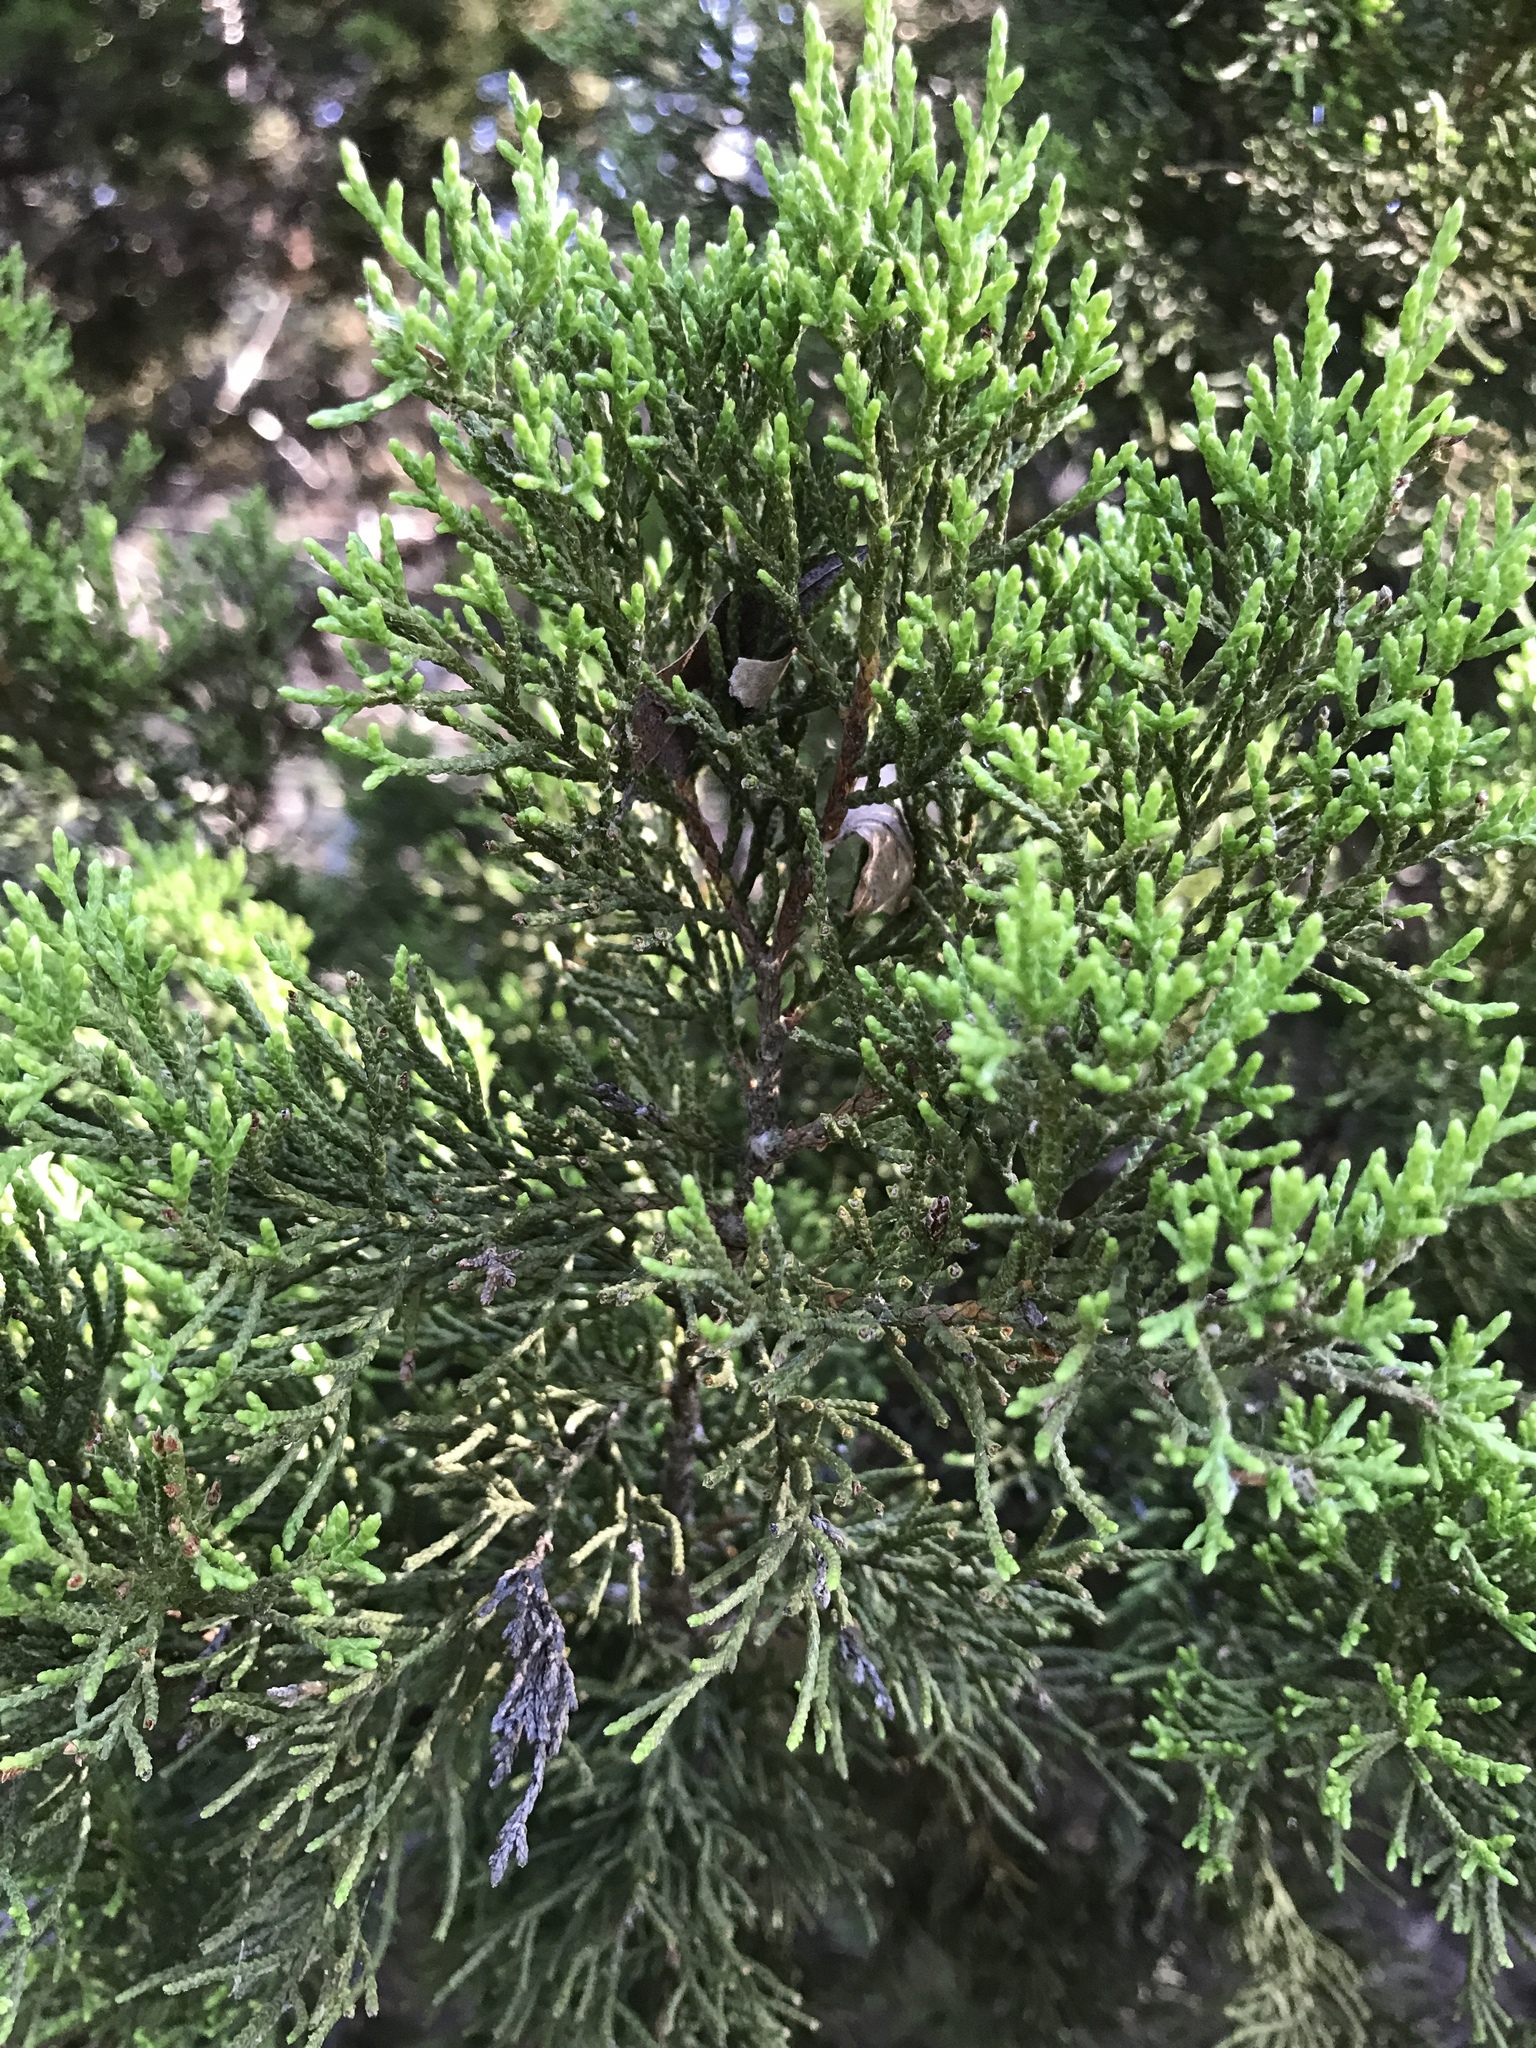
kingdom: Plantae
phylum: Tracheophyta
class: Pinopsida
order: Pinales
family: Cupressaceae
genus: Juniperus
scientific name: Juniperus ashei
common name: Mexican juniper
